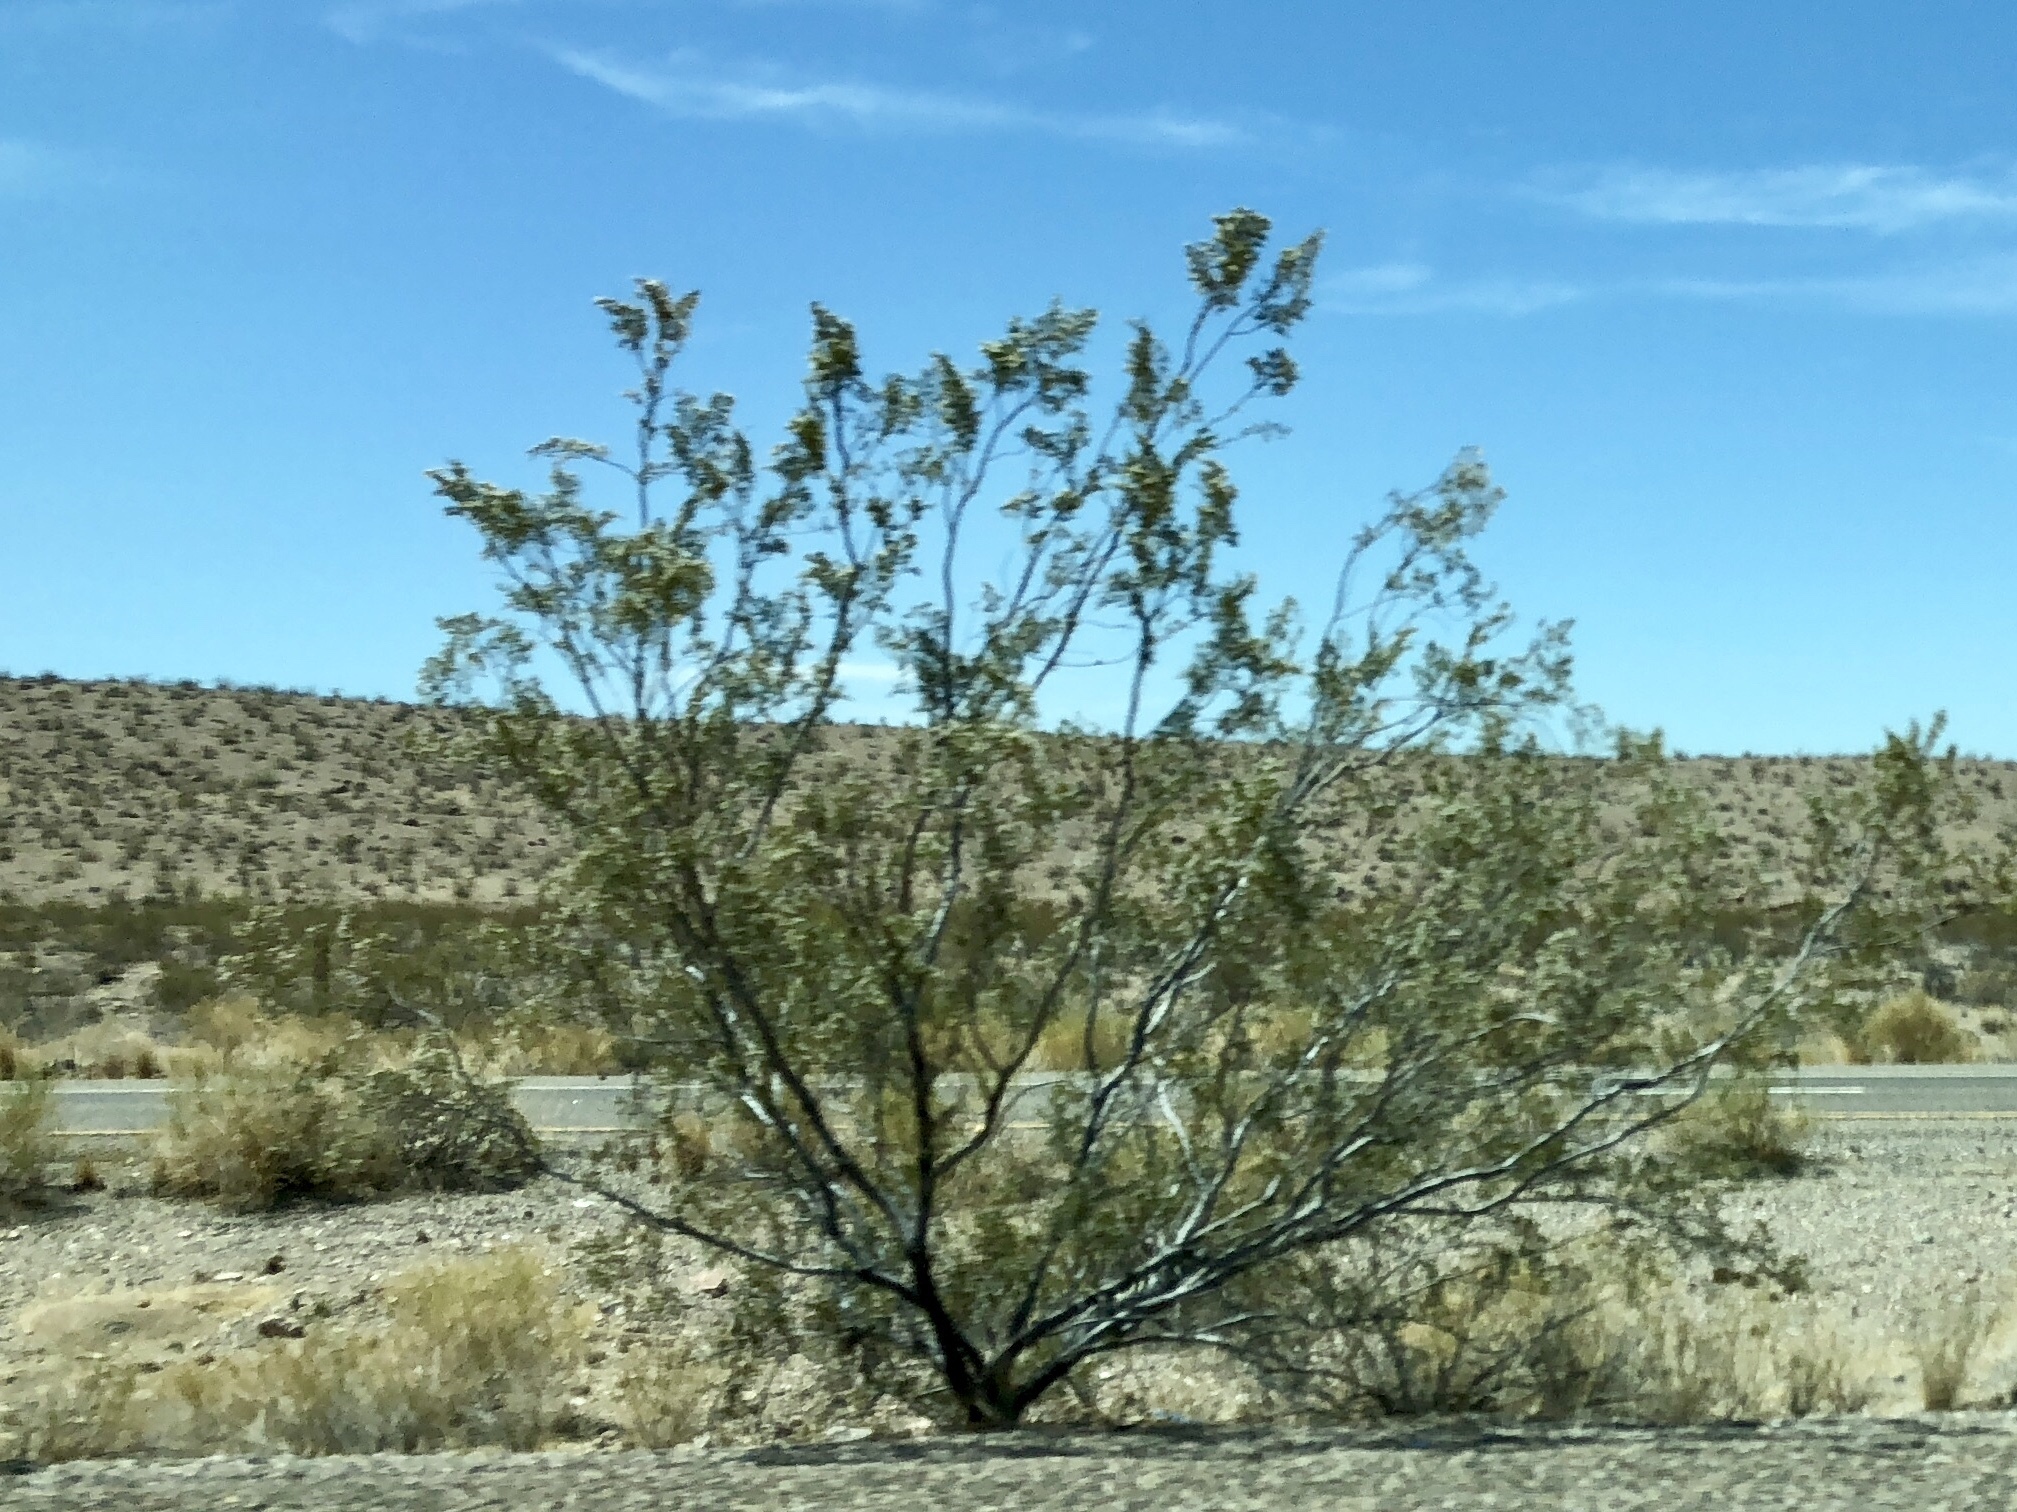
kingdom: Plantae
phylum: Tracheophyta
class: Magnoliopsida
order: Zygophyllales
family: Zygophyllaceae
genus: Larrea
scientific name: Larrea tridentata
